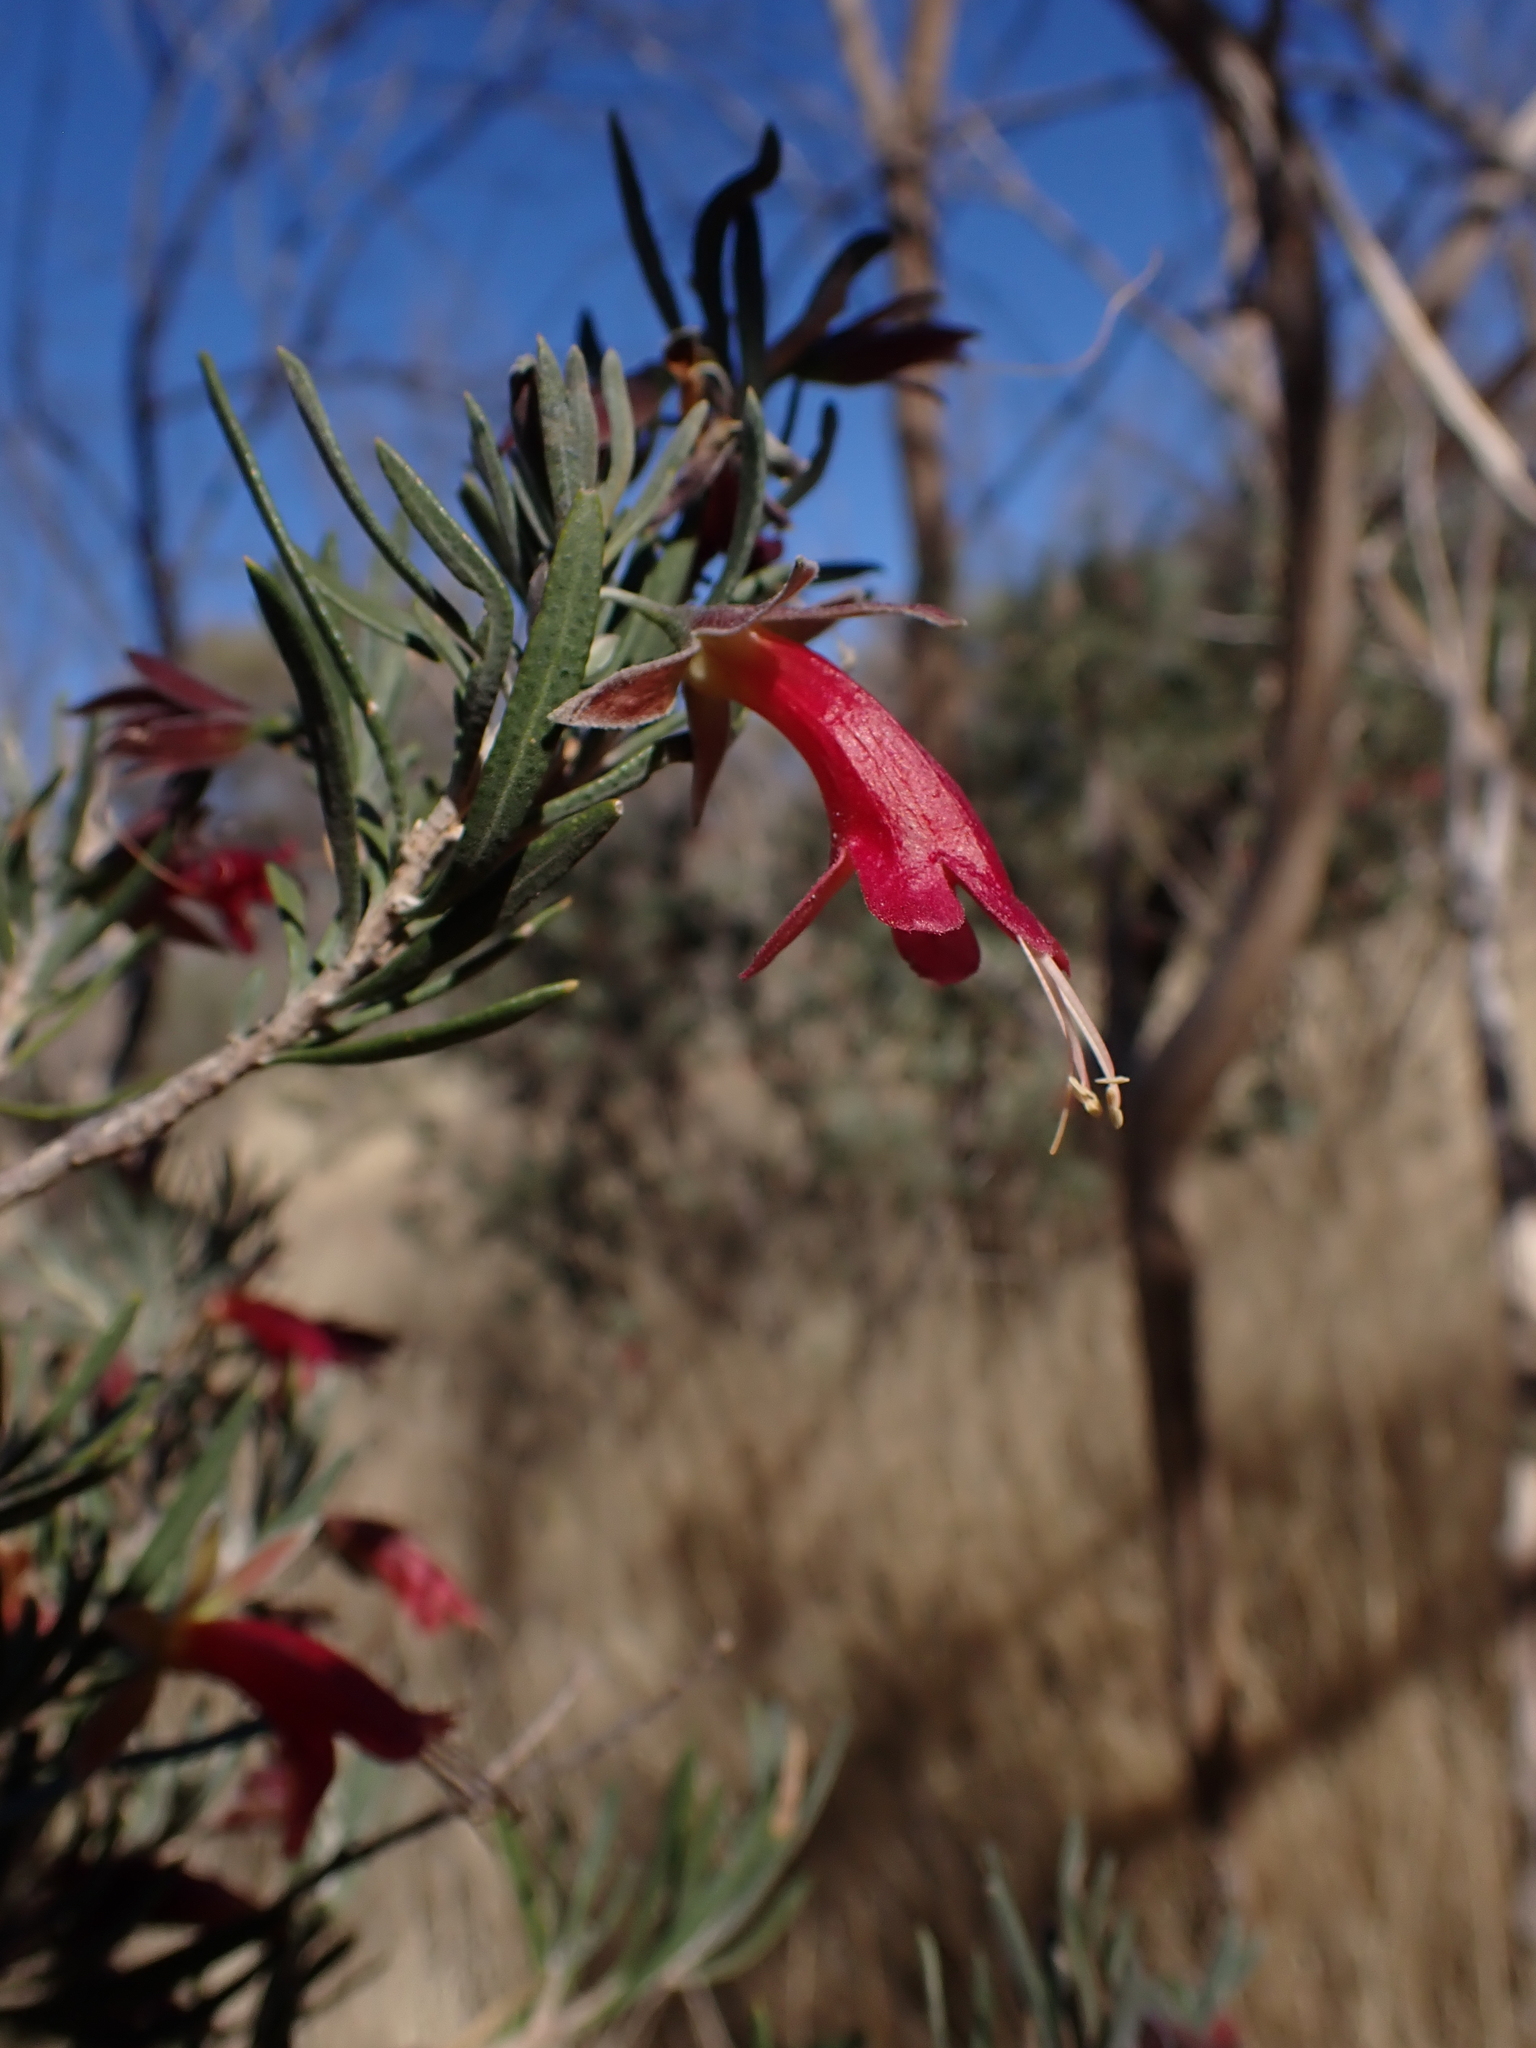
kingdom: Plantae
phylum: Tracheophyta
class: Magnoliopsida
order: Lamiales
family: Scrophulariaceae
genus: Eremophila
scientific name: Eremophila latrobei
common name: Crimson turkeybush
